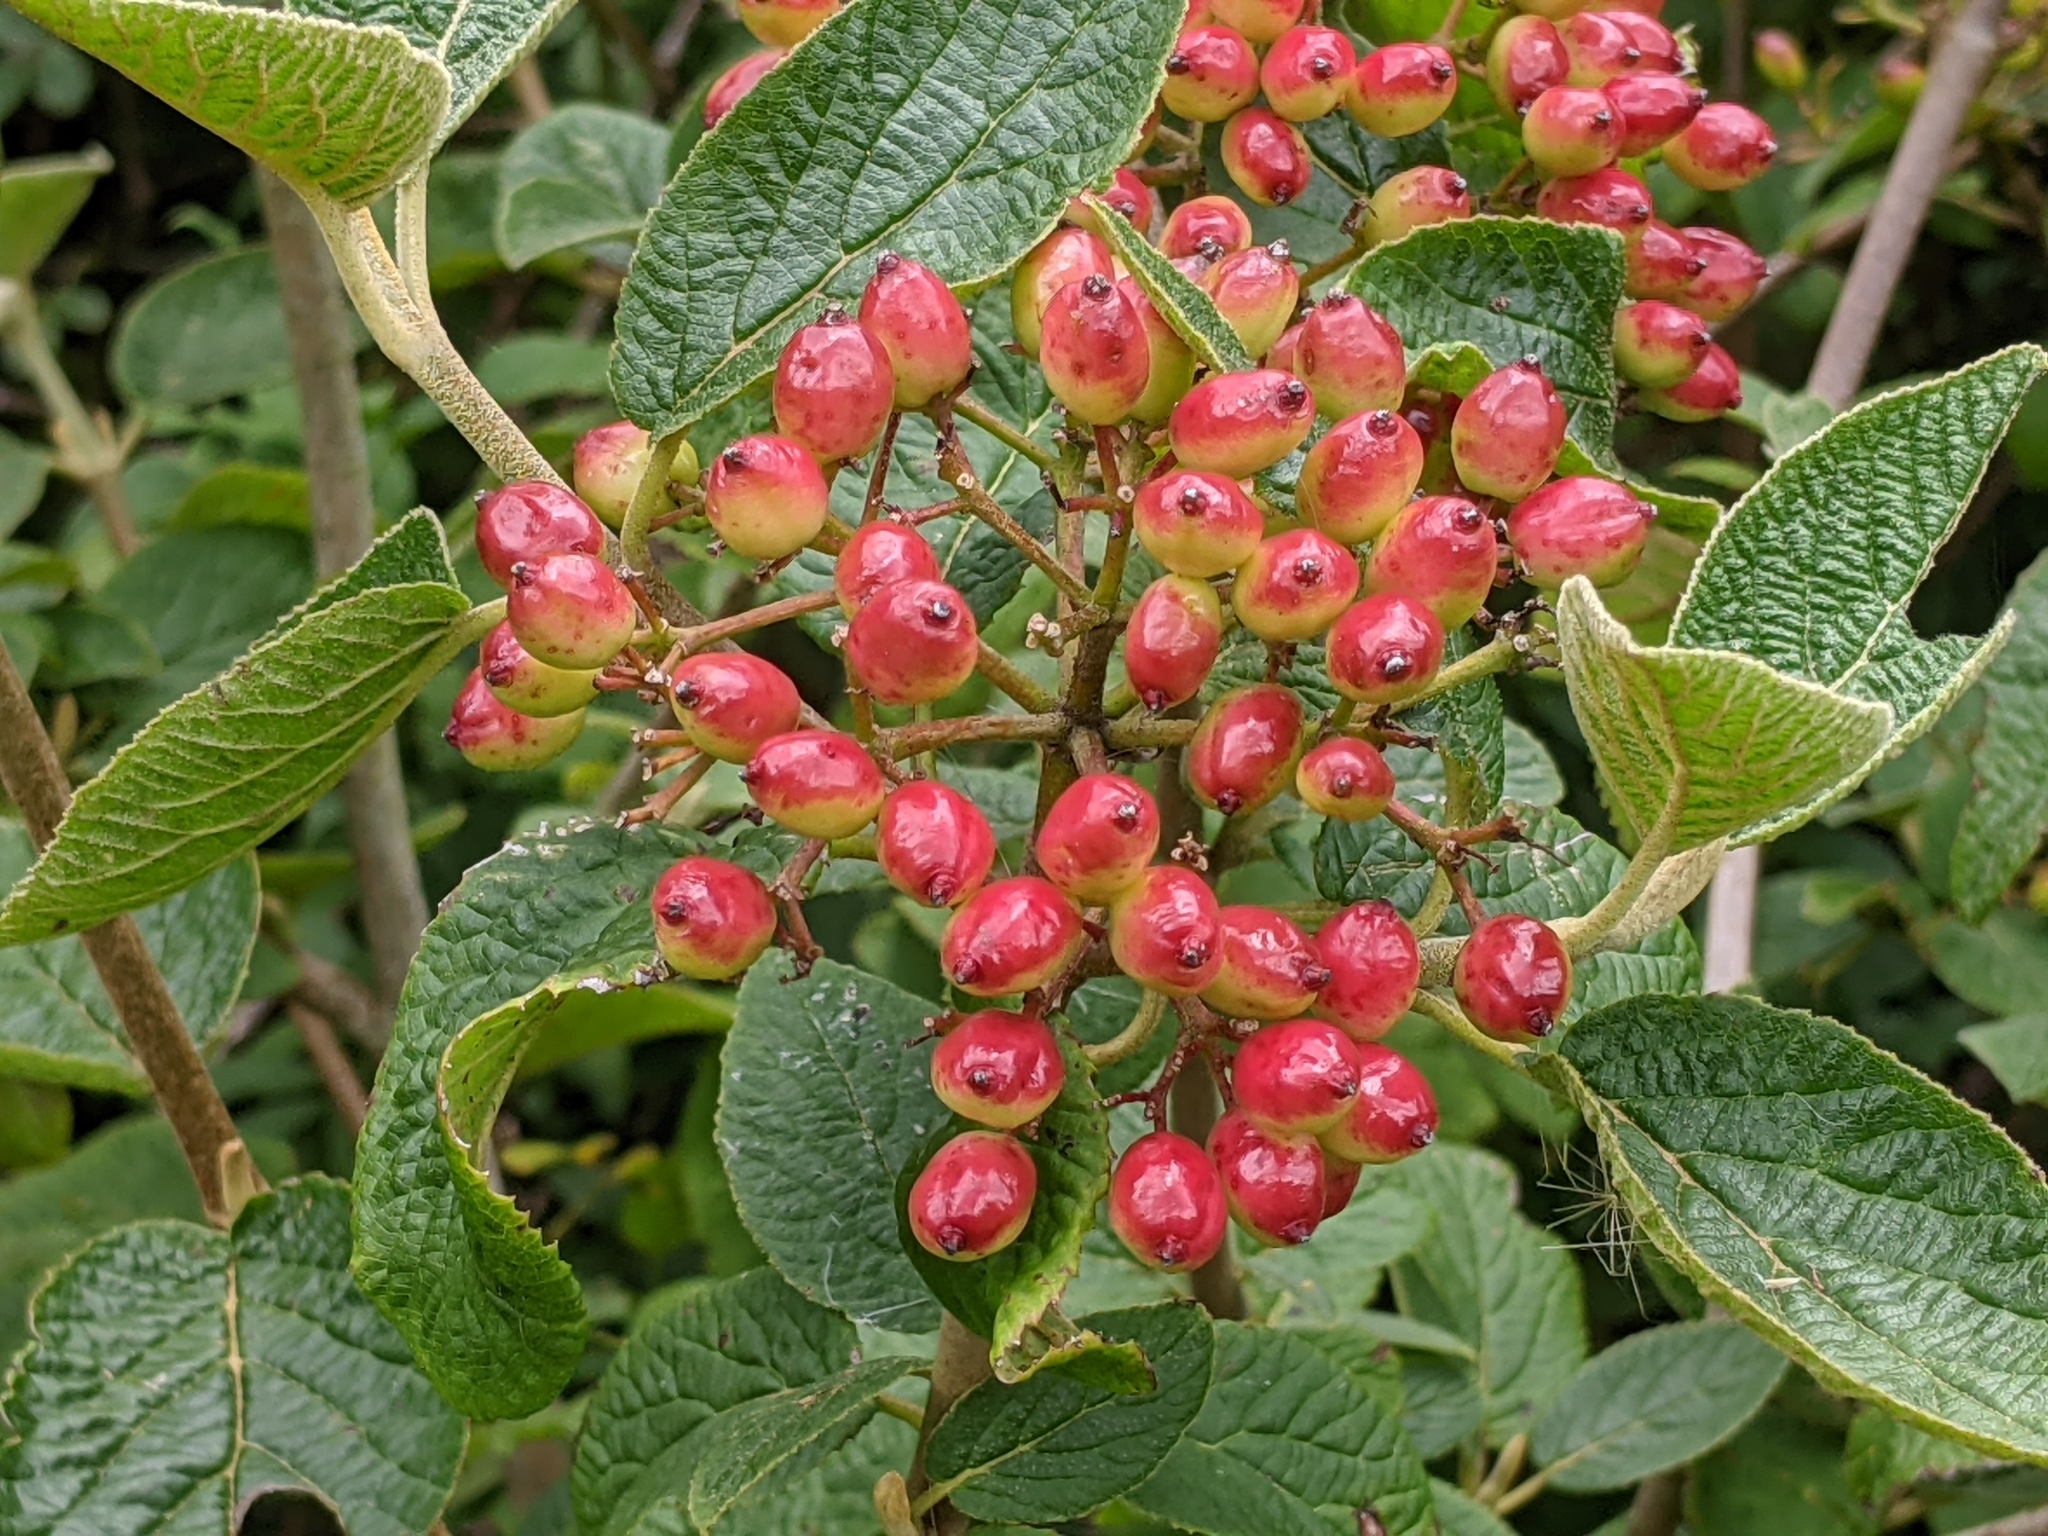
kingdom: Plantae
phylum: Tracheophyta
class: Magnoliopsida
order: Dipsacales
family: Viburnaceae
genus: Viburnum
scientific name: Viburnum lantana
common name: Wayfaring tree
